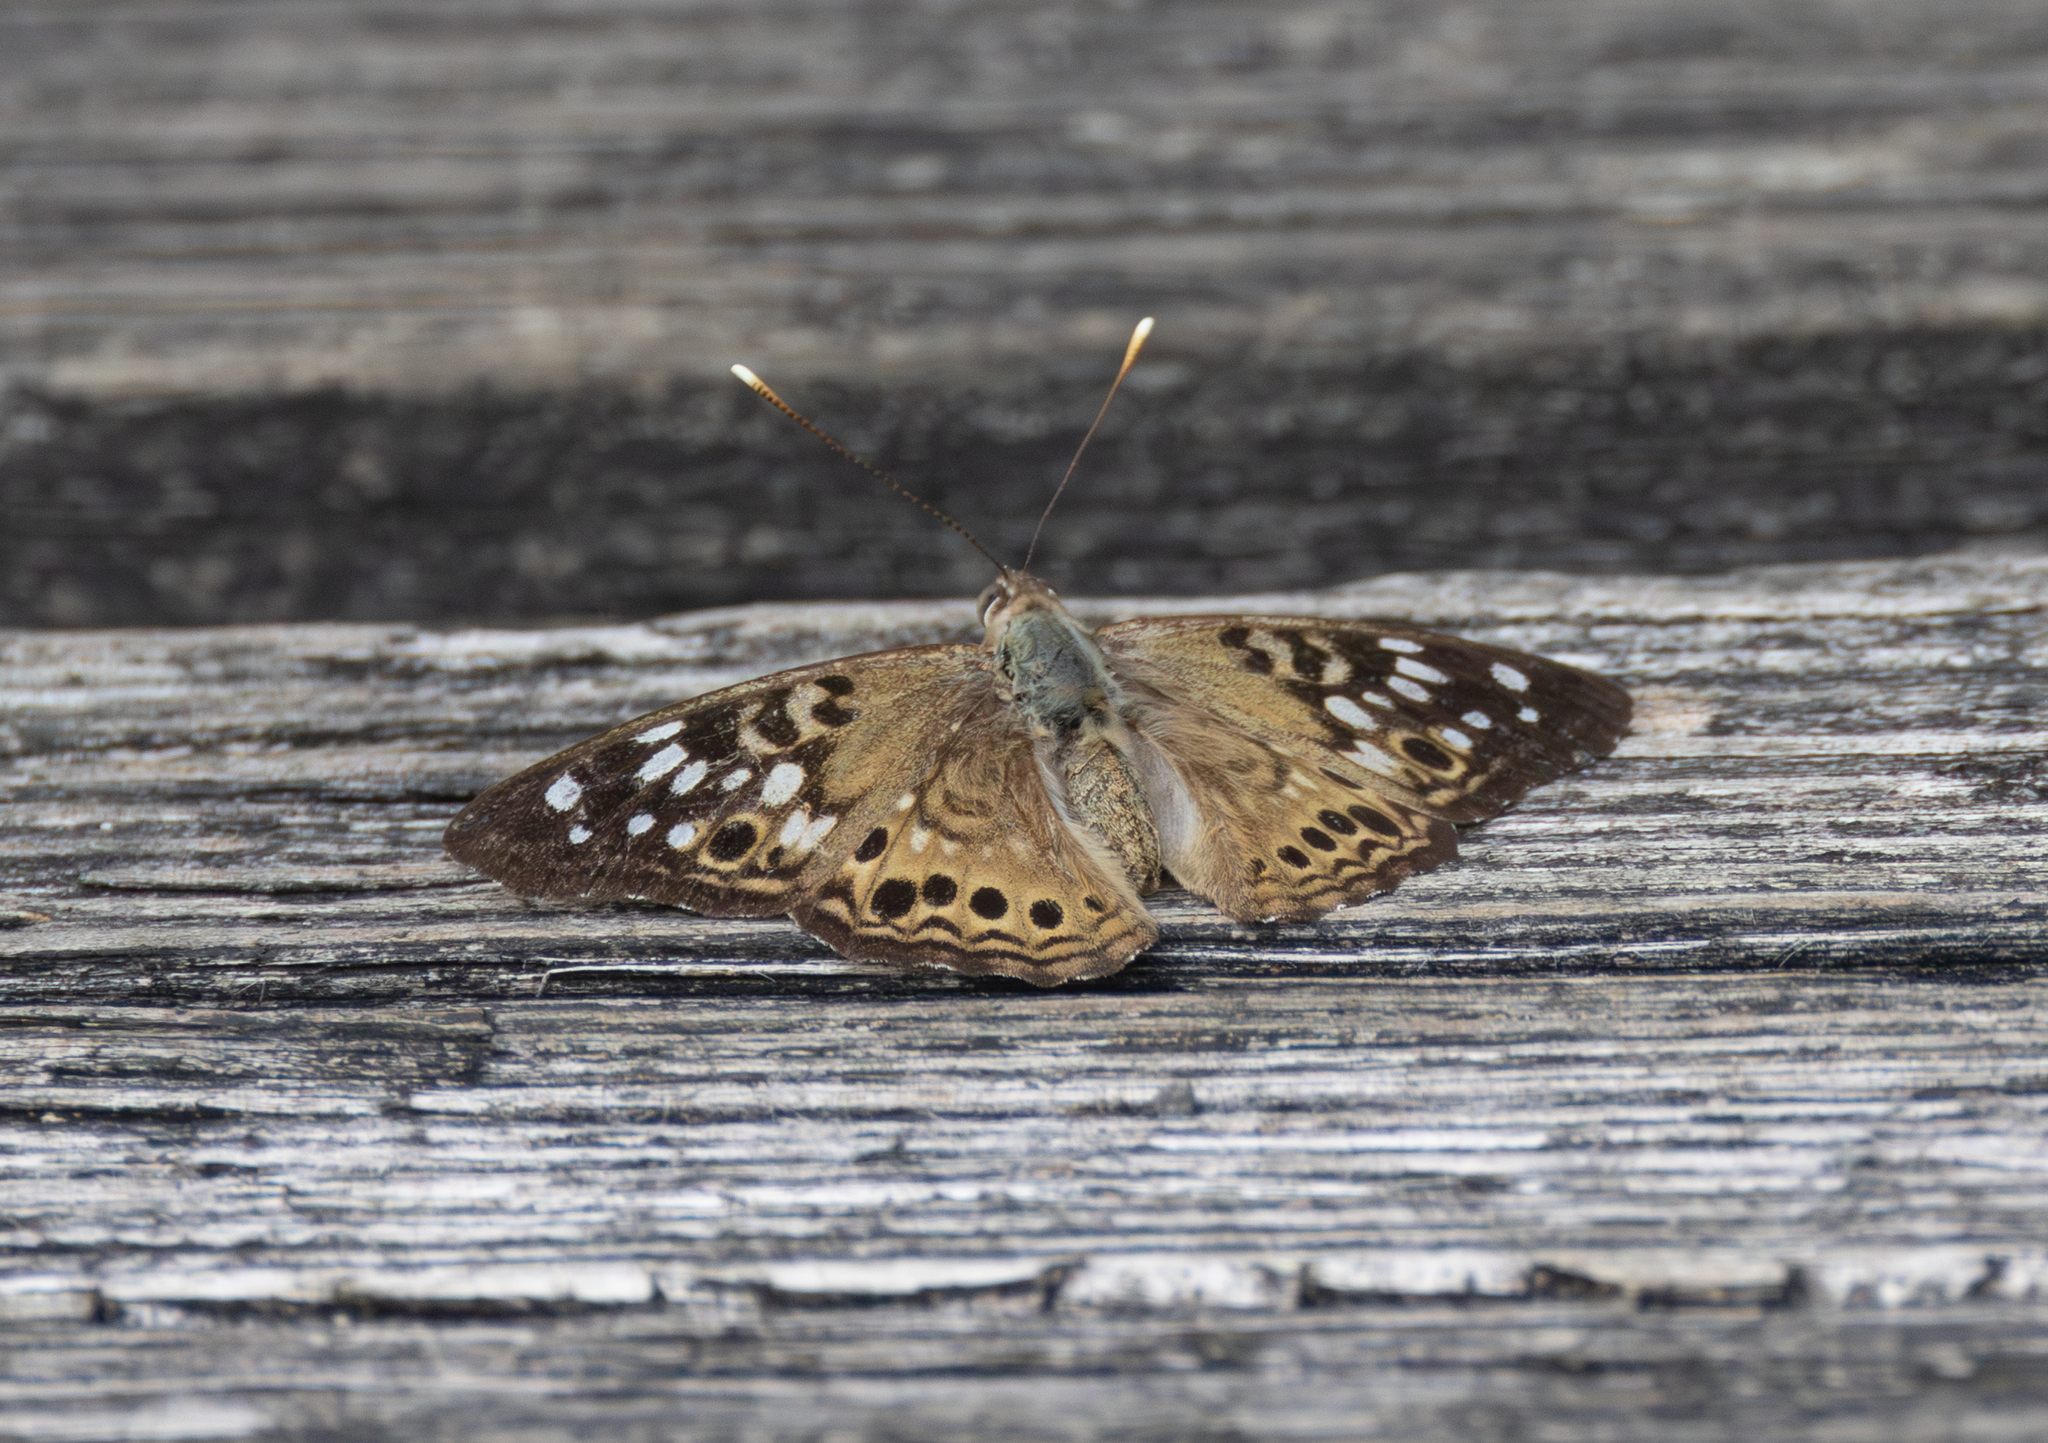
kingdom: Animalia
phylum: Arthropoda
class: Insecta
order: Lepidoptera
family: Nymphalidae
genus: Asterocampa
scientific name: Asterocampa celtis
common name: Hackberry emperor
